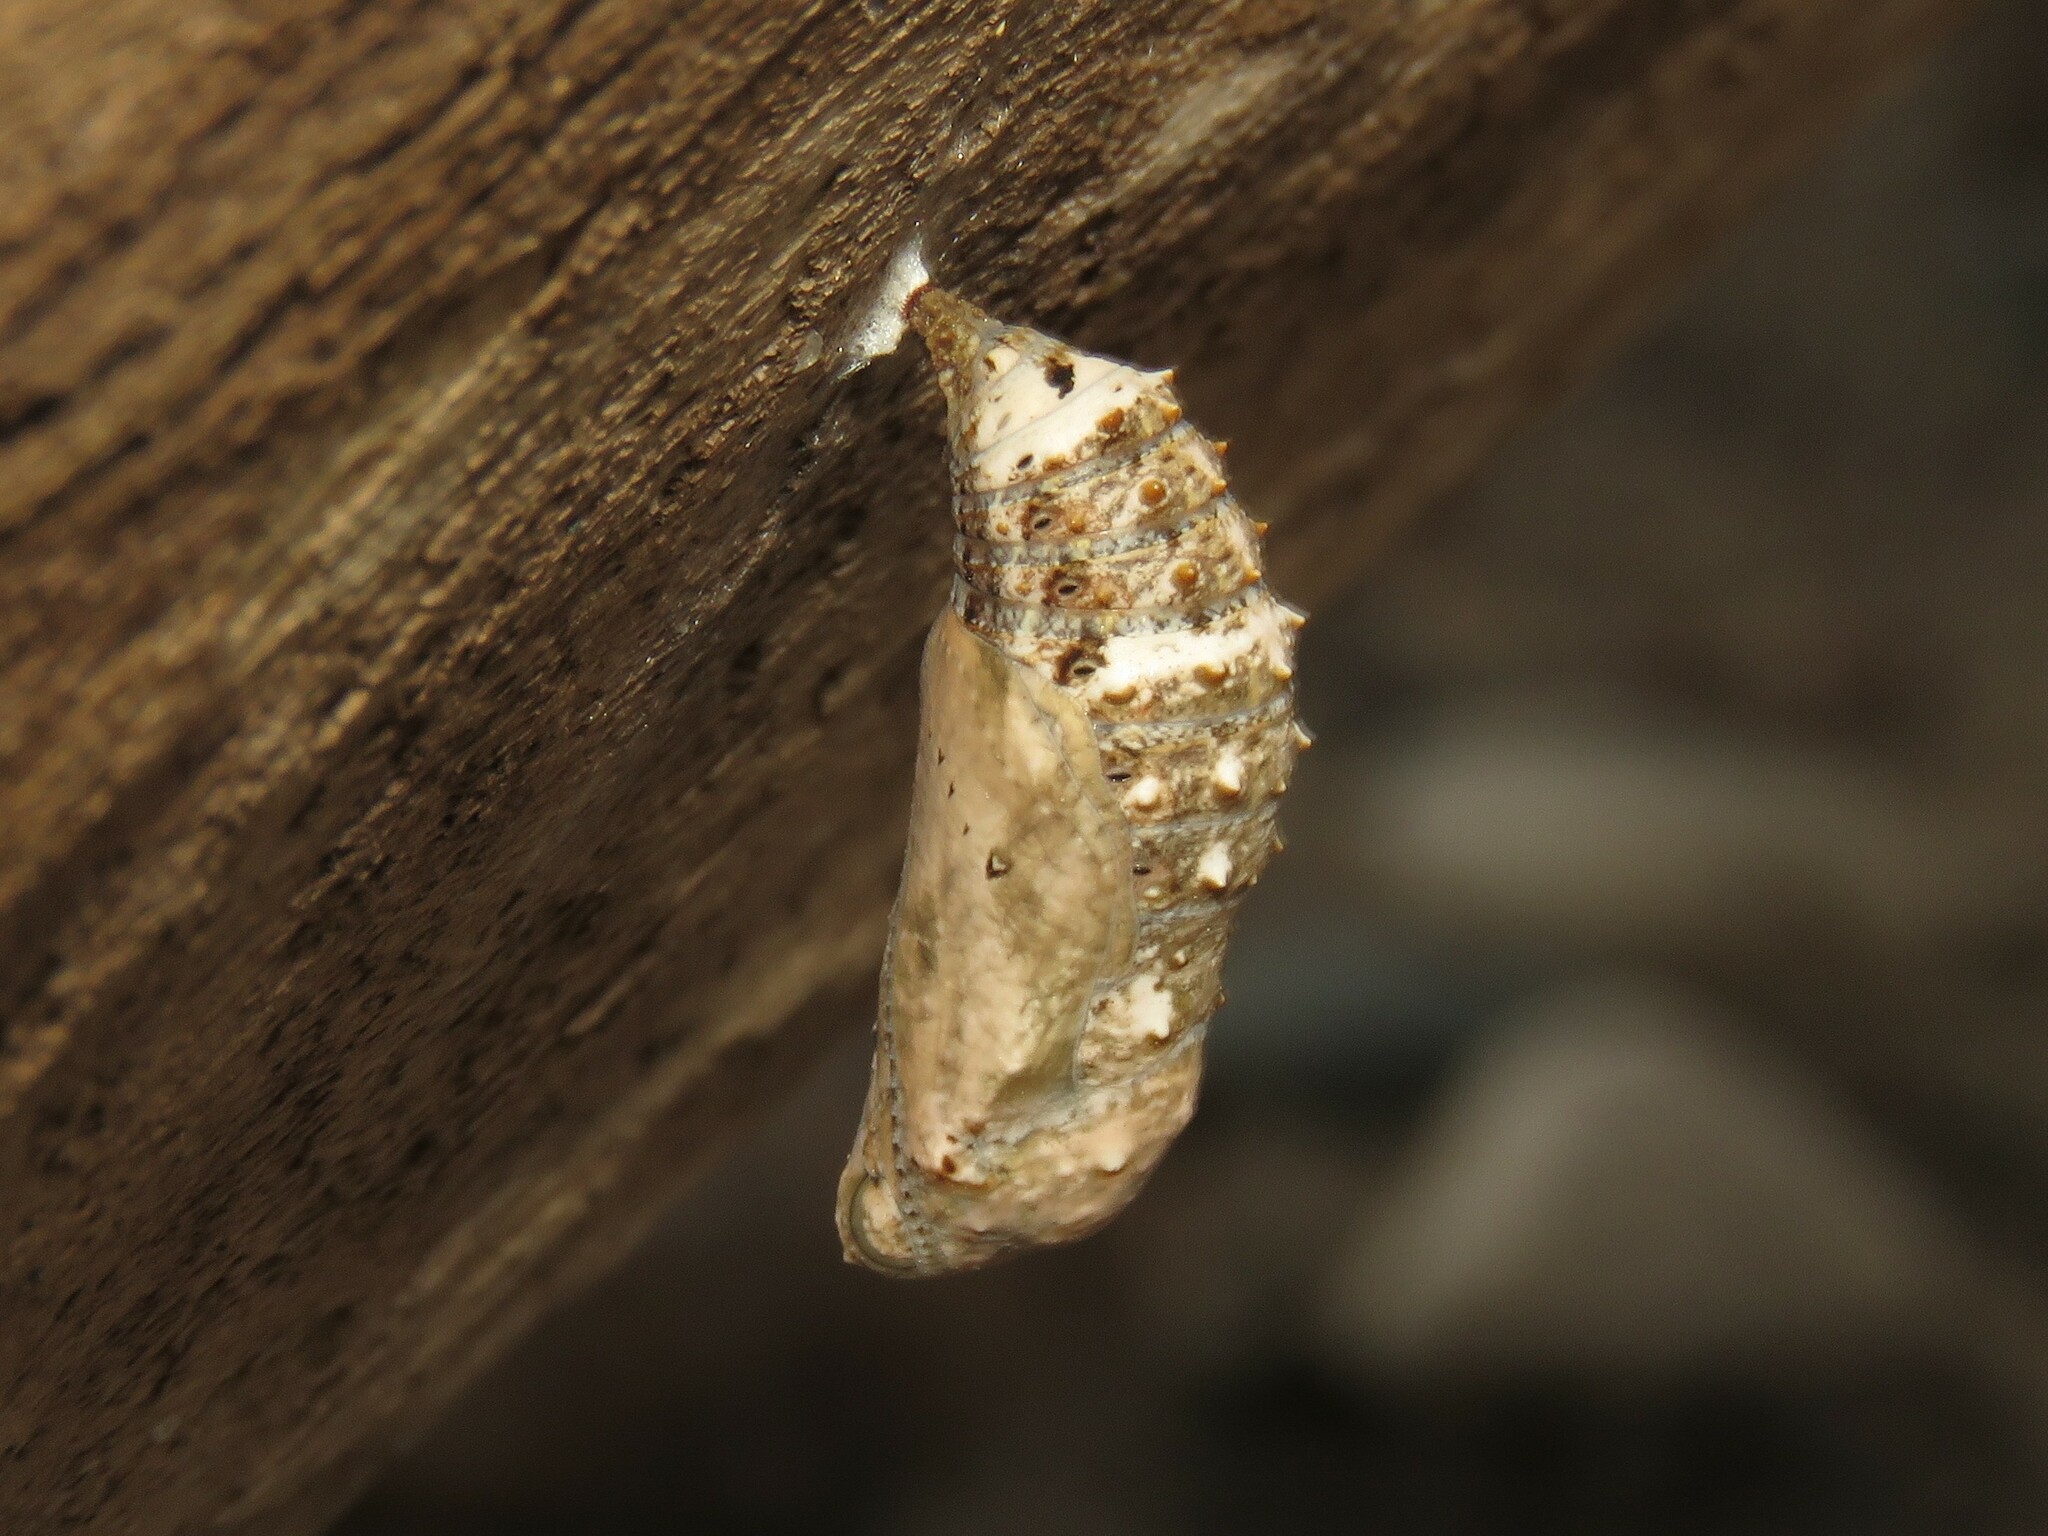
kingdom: Animalia
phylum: Arthropoda
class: Insecta
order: Lepidoptera
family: Nymphalidae
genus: Junonia
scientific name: Junonia coenia
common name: Common buckeye
